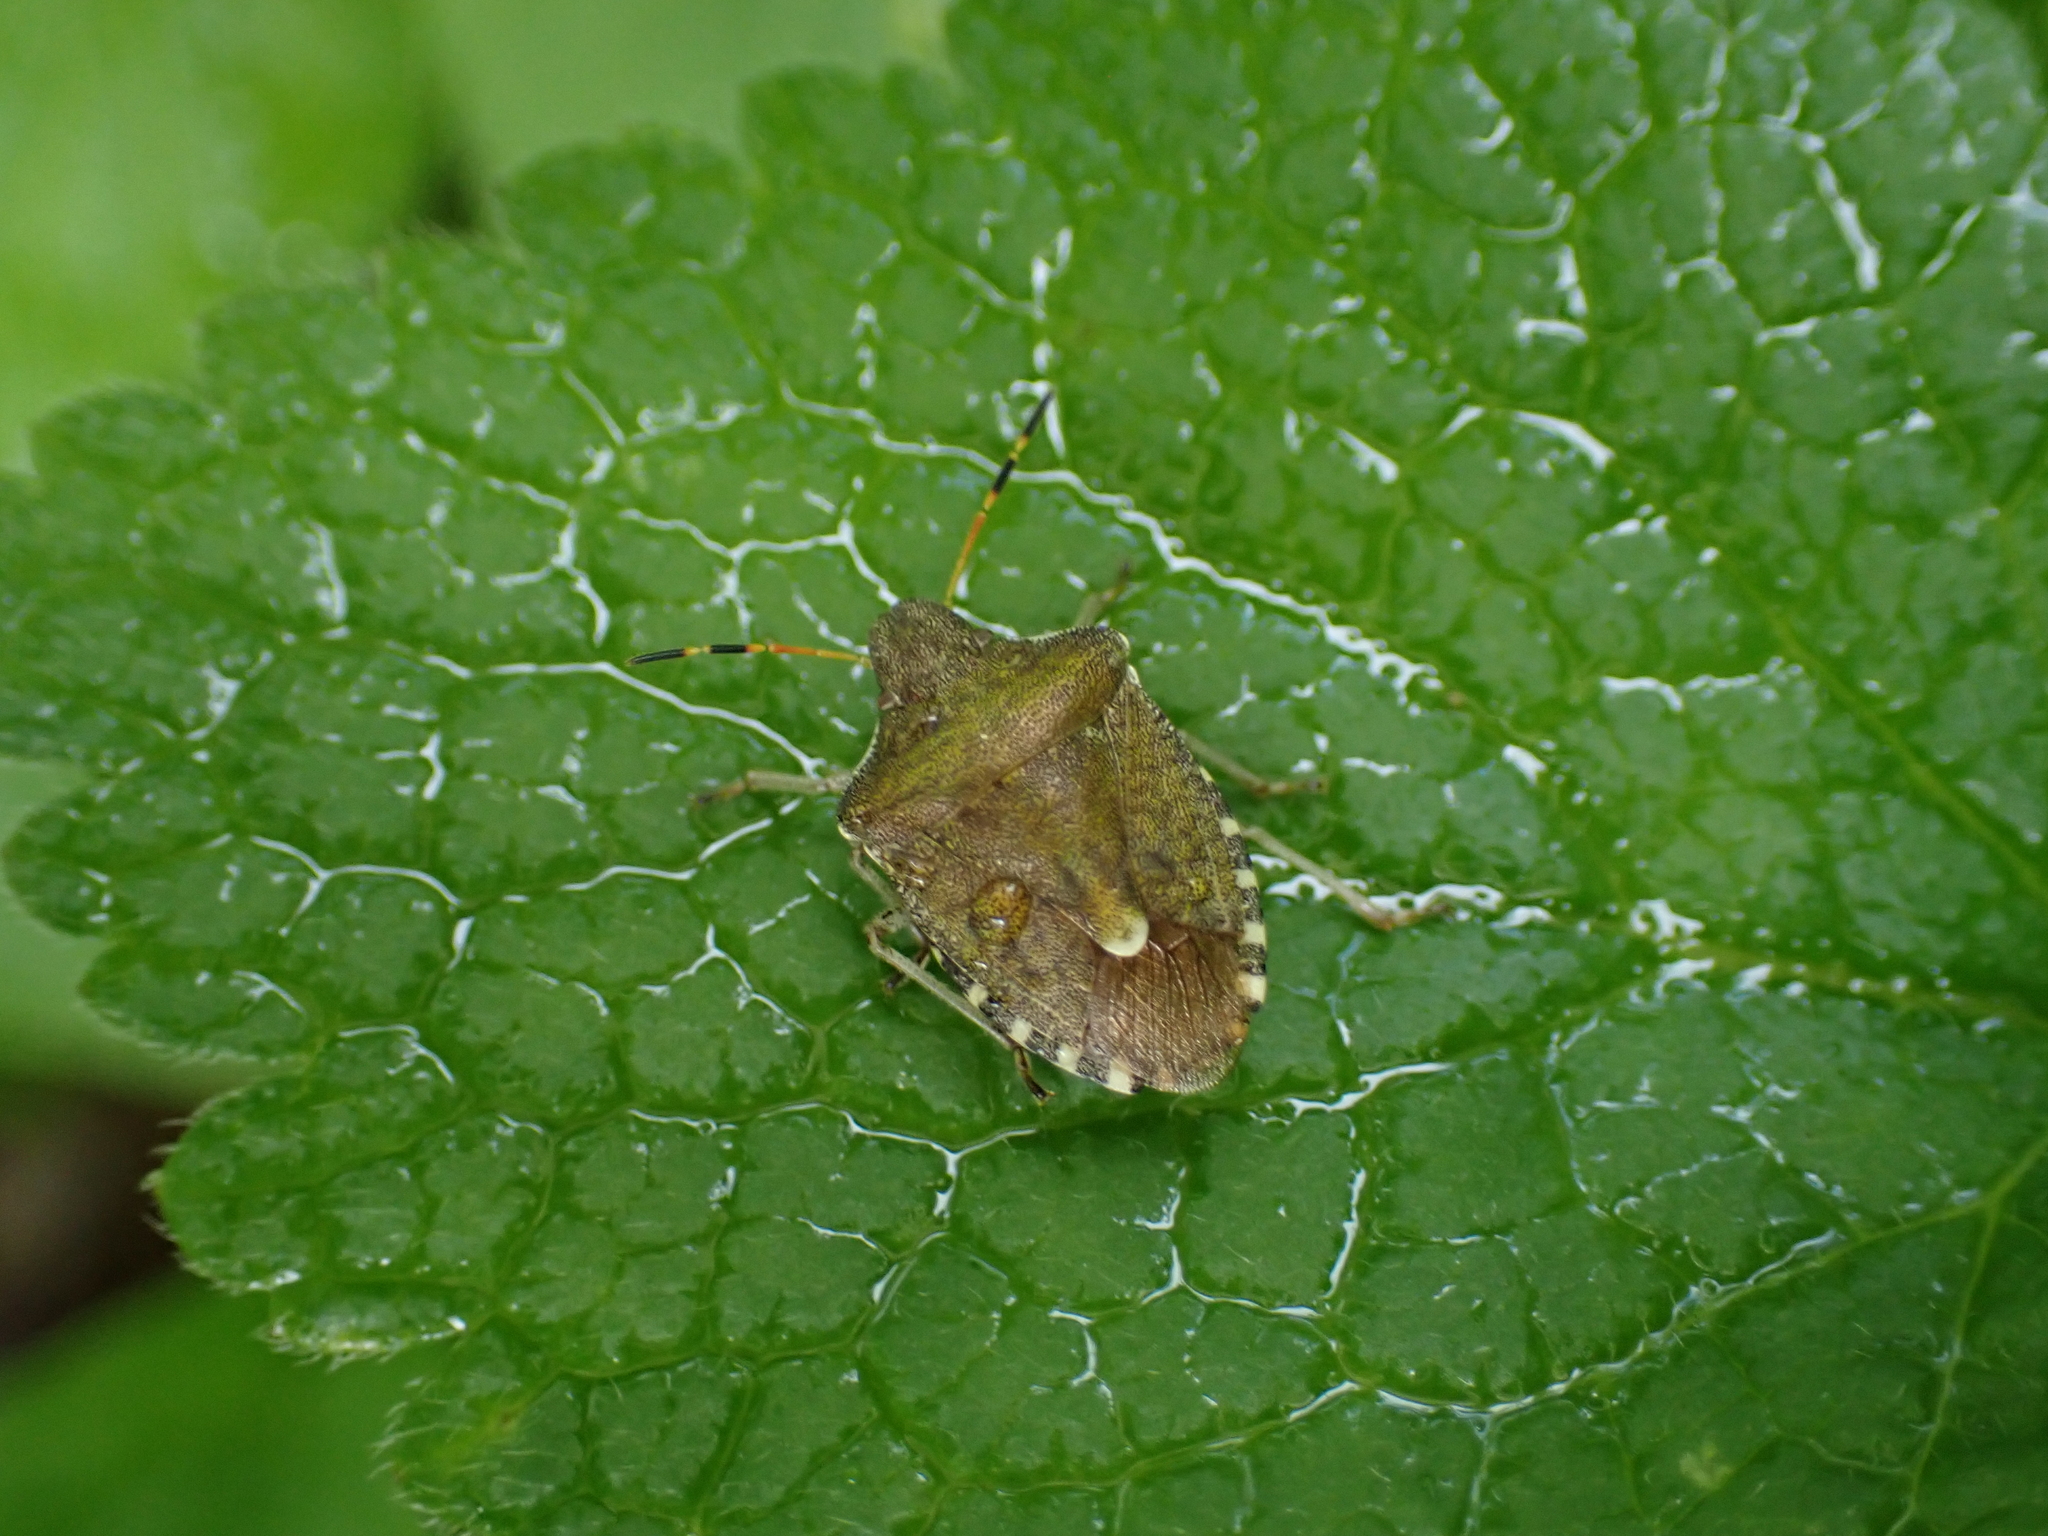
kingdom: Animalia
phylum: Arthropoda
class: Insecta
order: Hemiptera
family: Pentatomidae
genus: Holcostethus
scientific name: Holcostethus strictus
